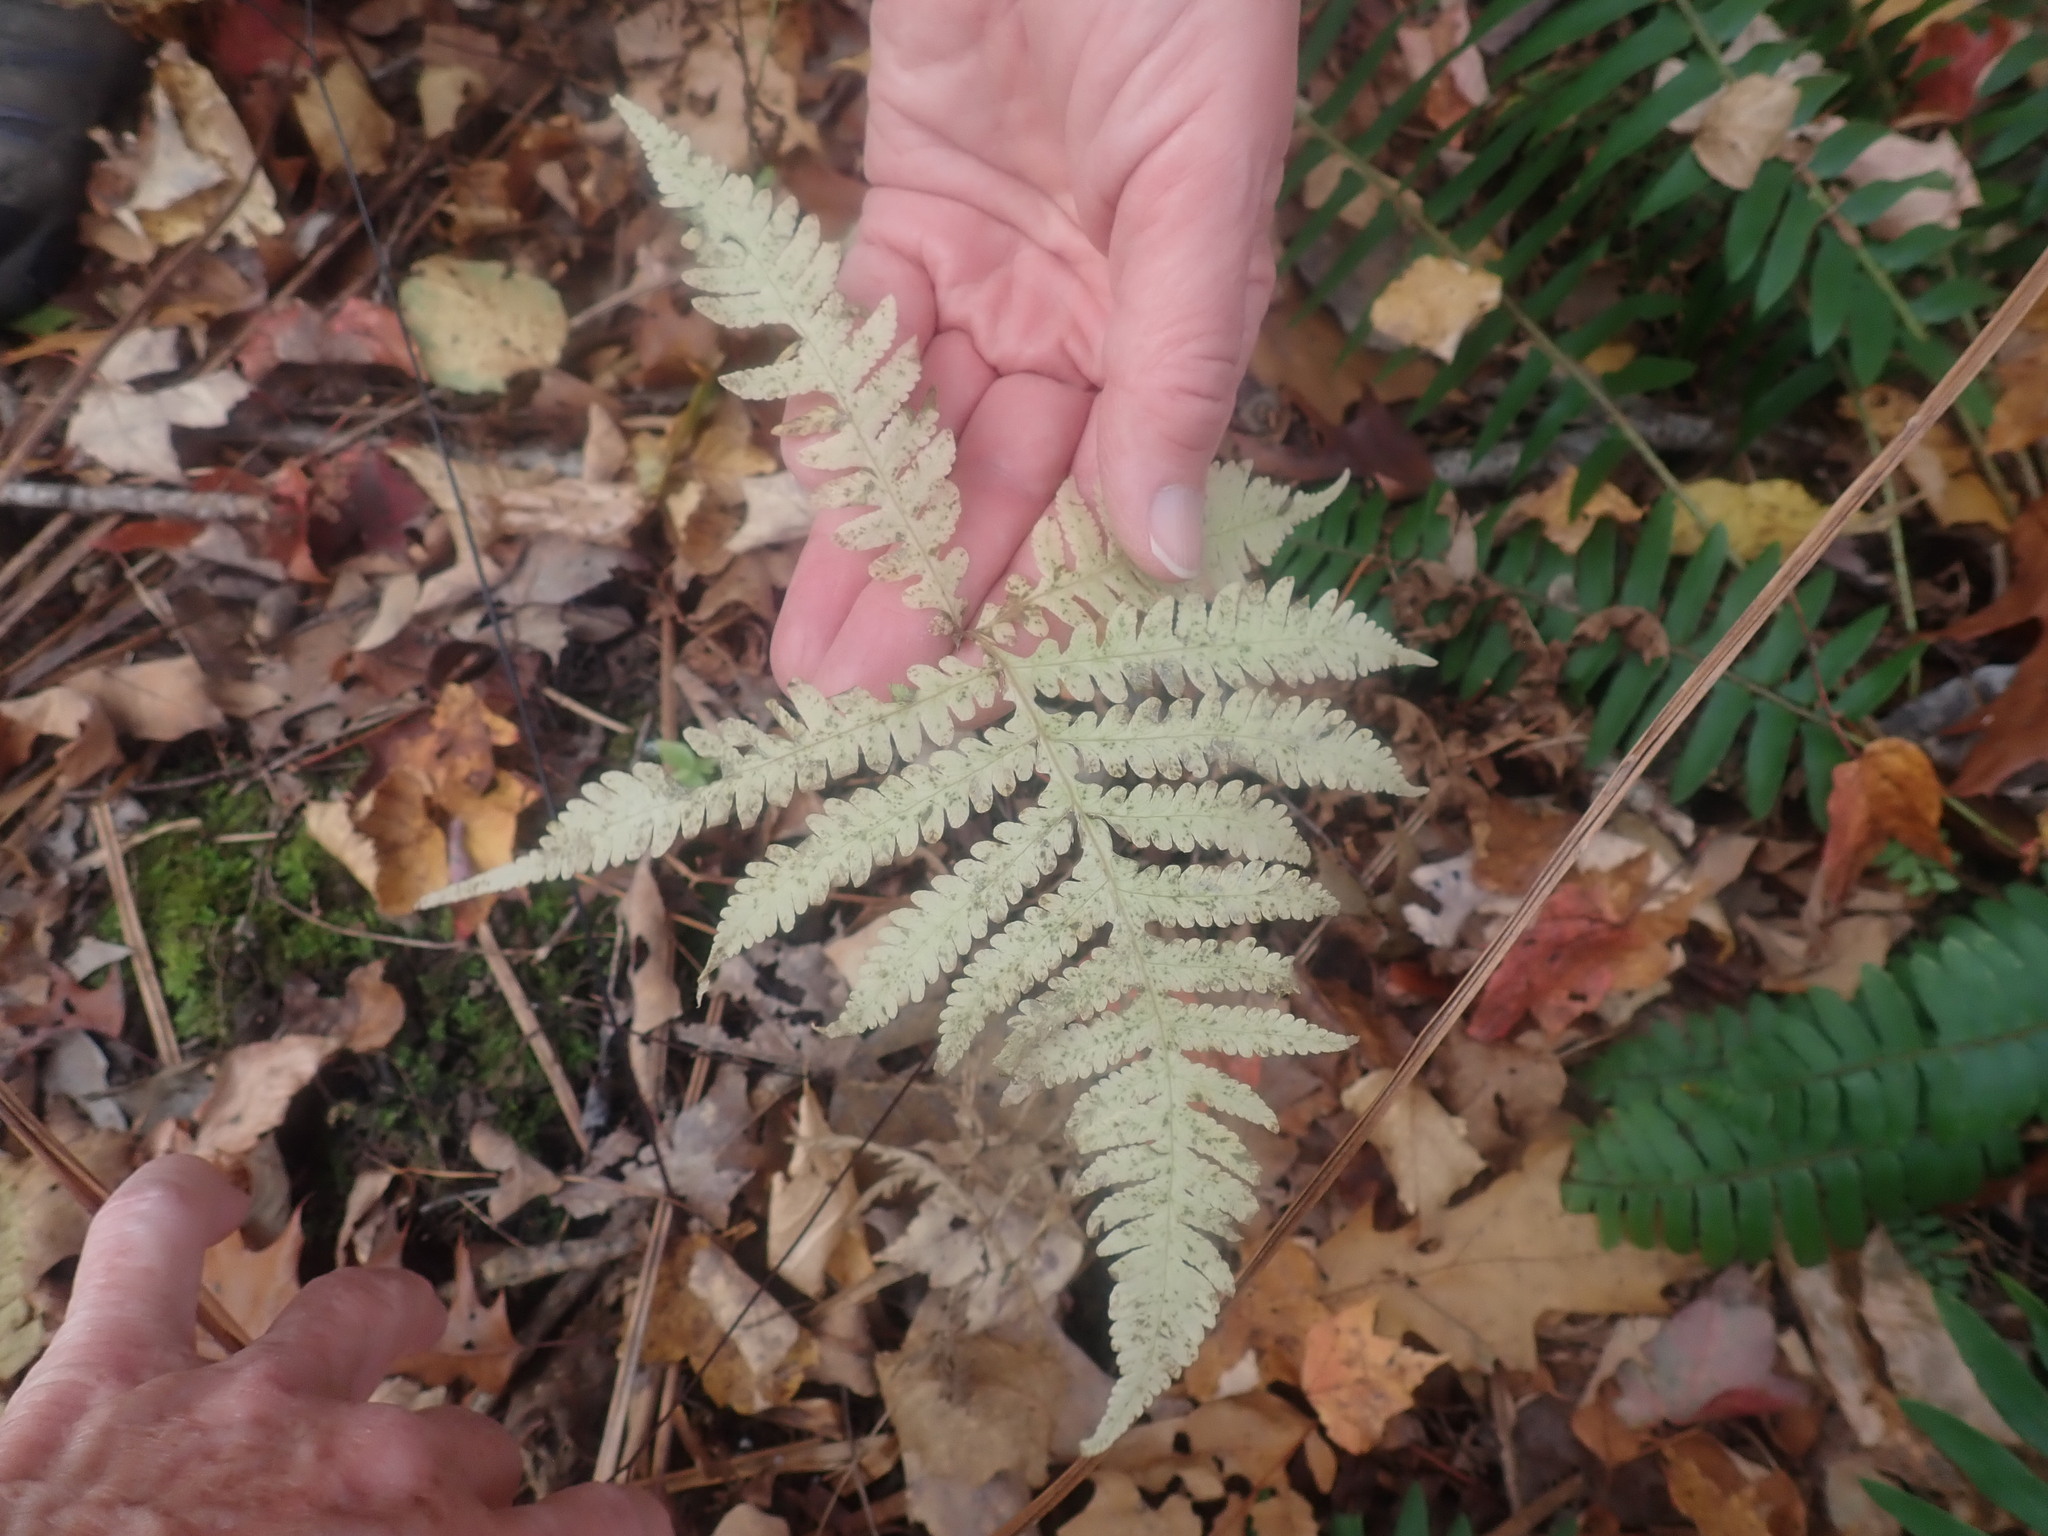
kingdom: Plantae
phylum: Tracheophyta
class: Polypodiopsida
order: Polypodiales
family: Thelypteridaceae
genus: Phegopteris
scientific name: Phegopteris connectilis
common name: Beech fern
